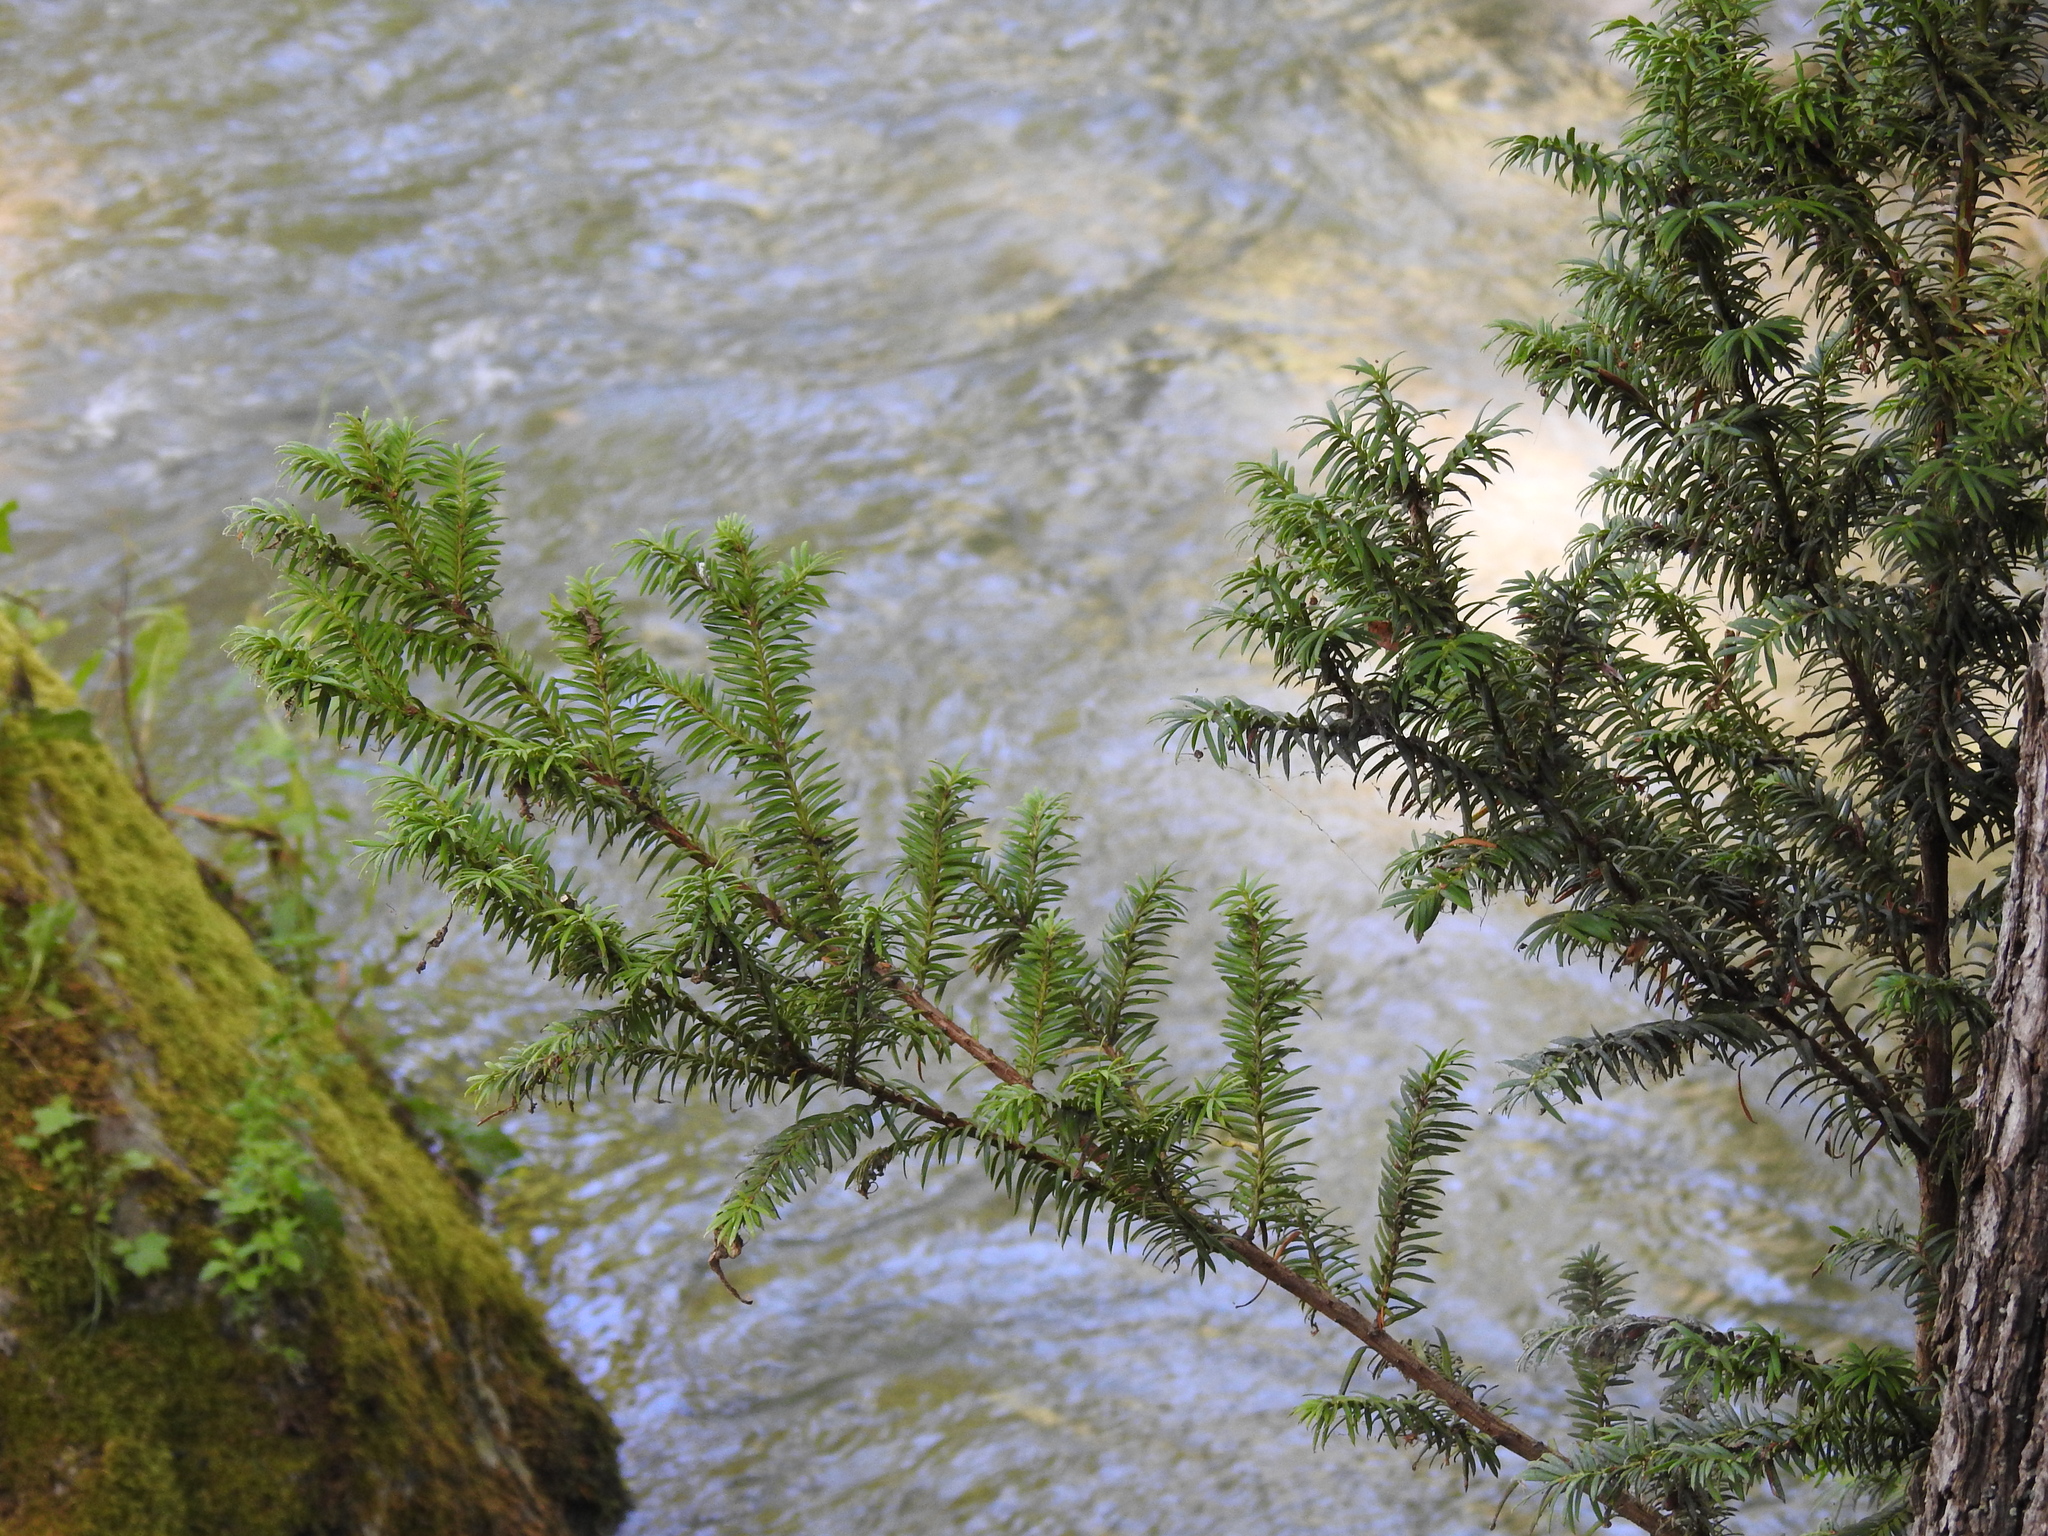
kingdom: Plantae
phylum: Tracheophyta
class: Pinopsida
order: Pinales
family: Taxaceae
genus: Taxus
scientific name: Taxus baccata
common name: Yew
